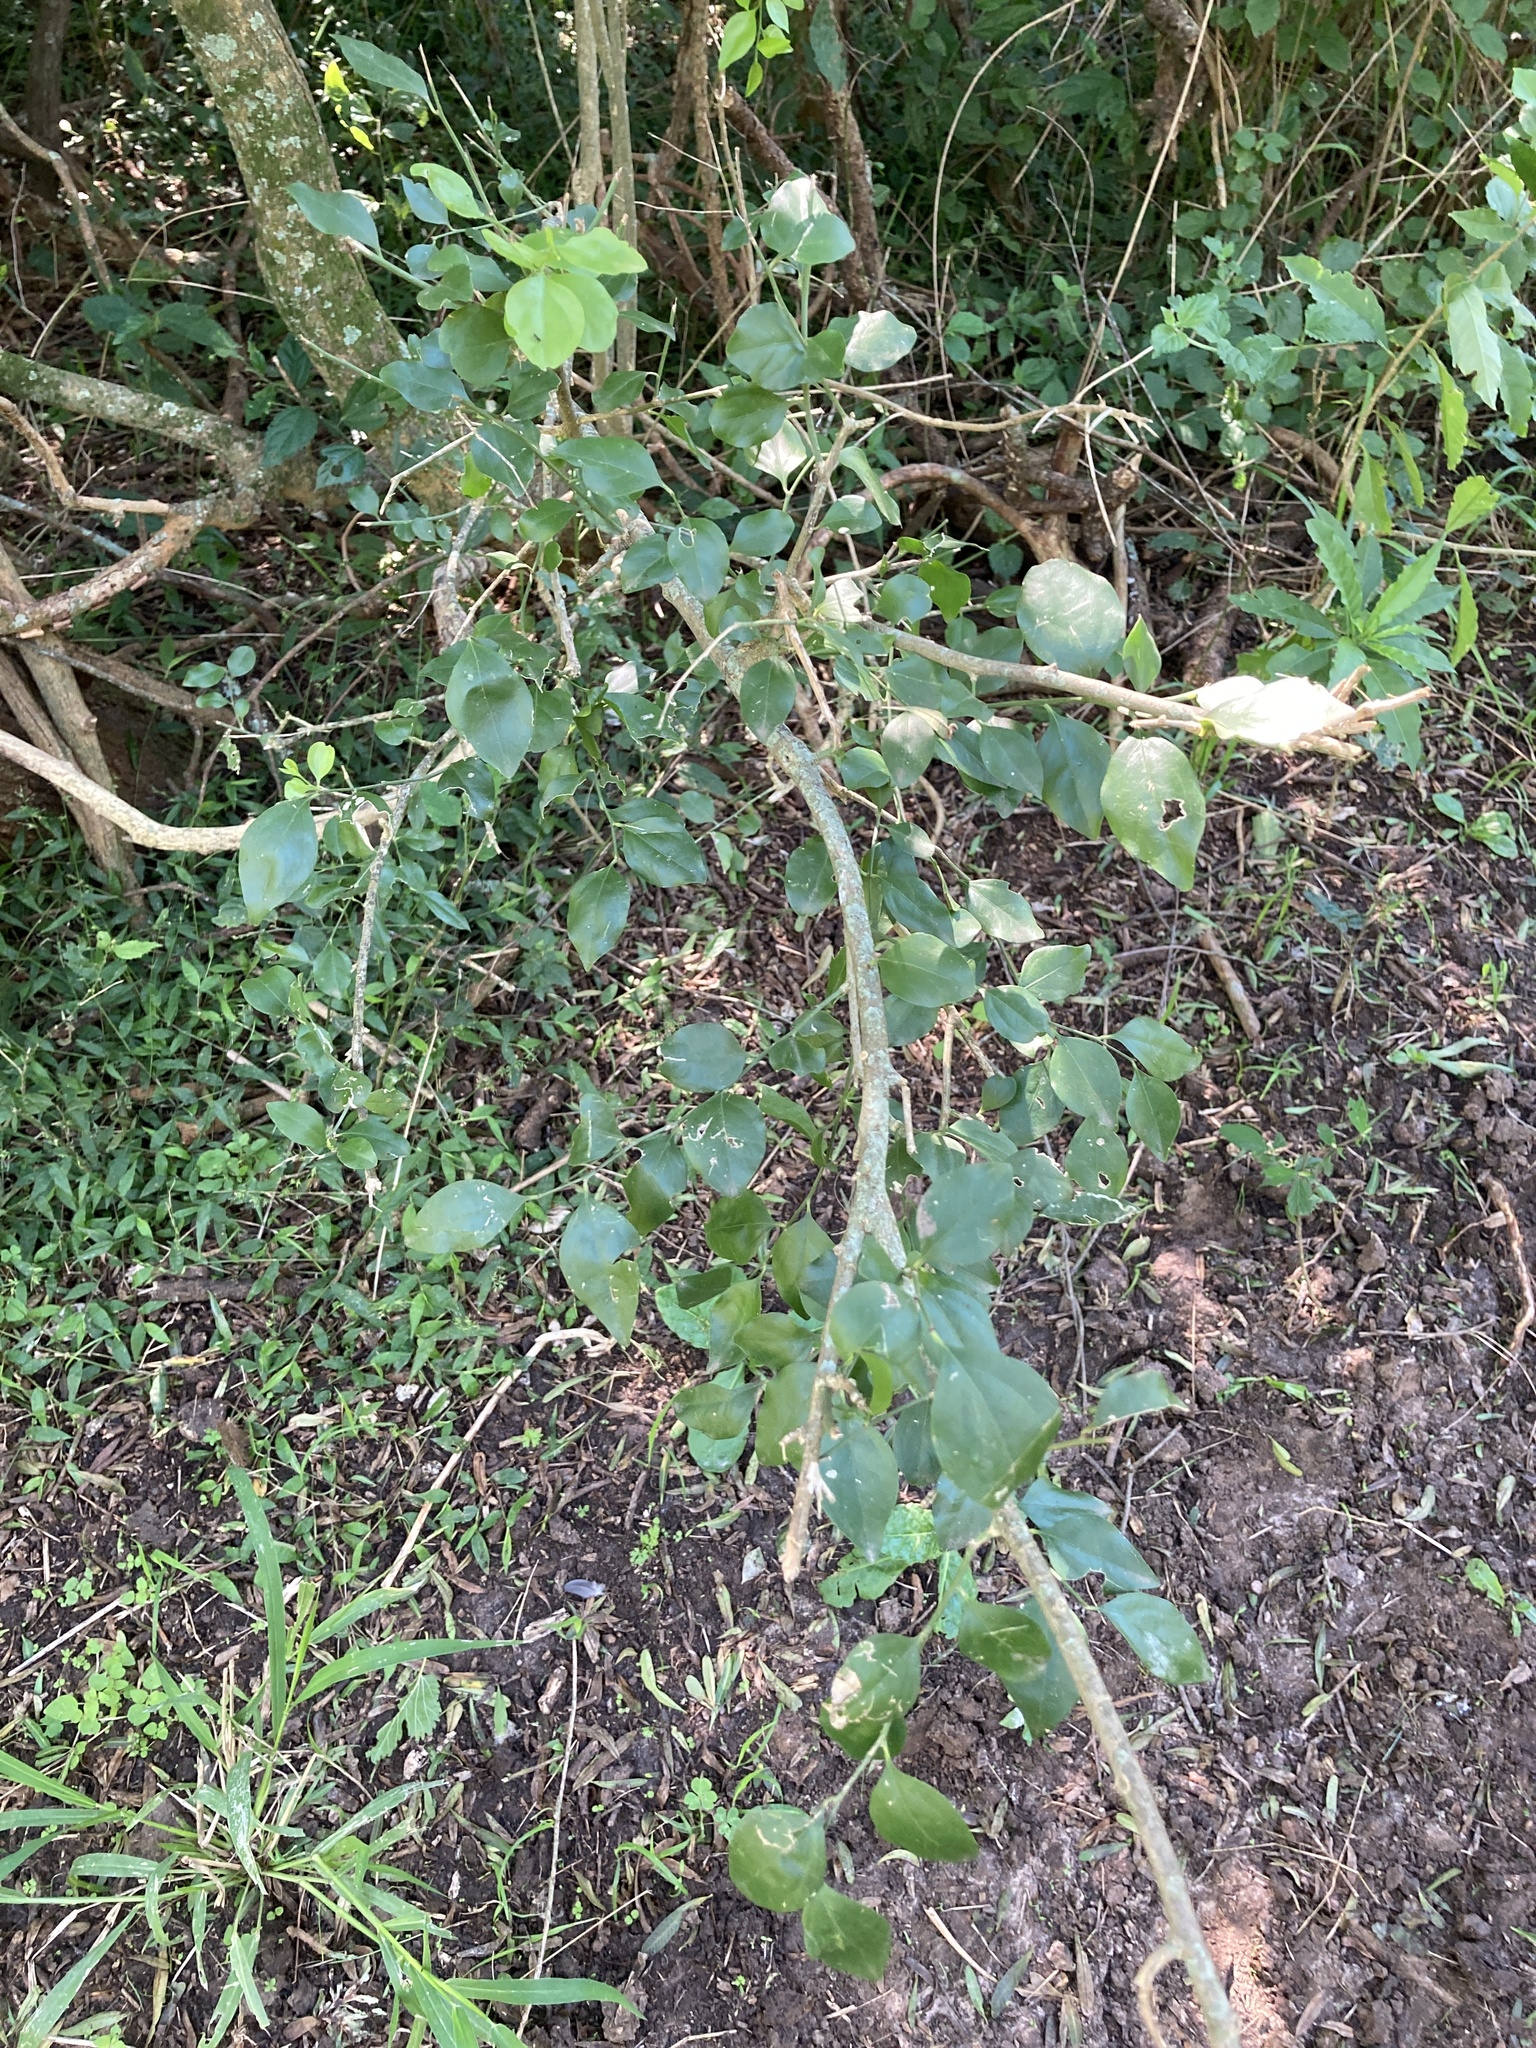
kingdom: Plantae
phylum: Tracheophyta
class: Magnoliopsida
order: Celastrales
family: Celastraceae
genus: Schaefferia
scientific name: Schaefferia argentinensis
